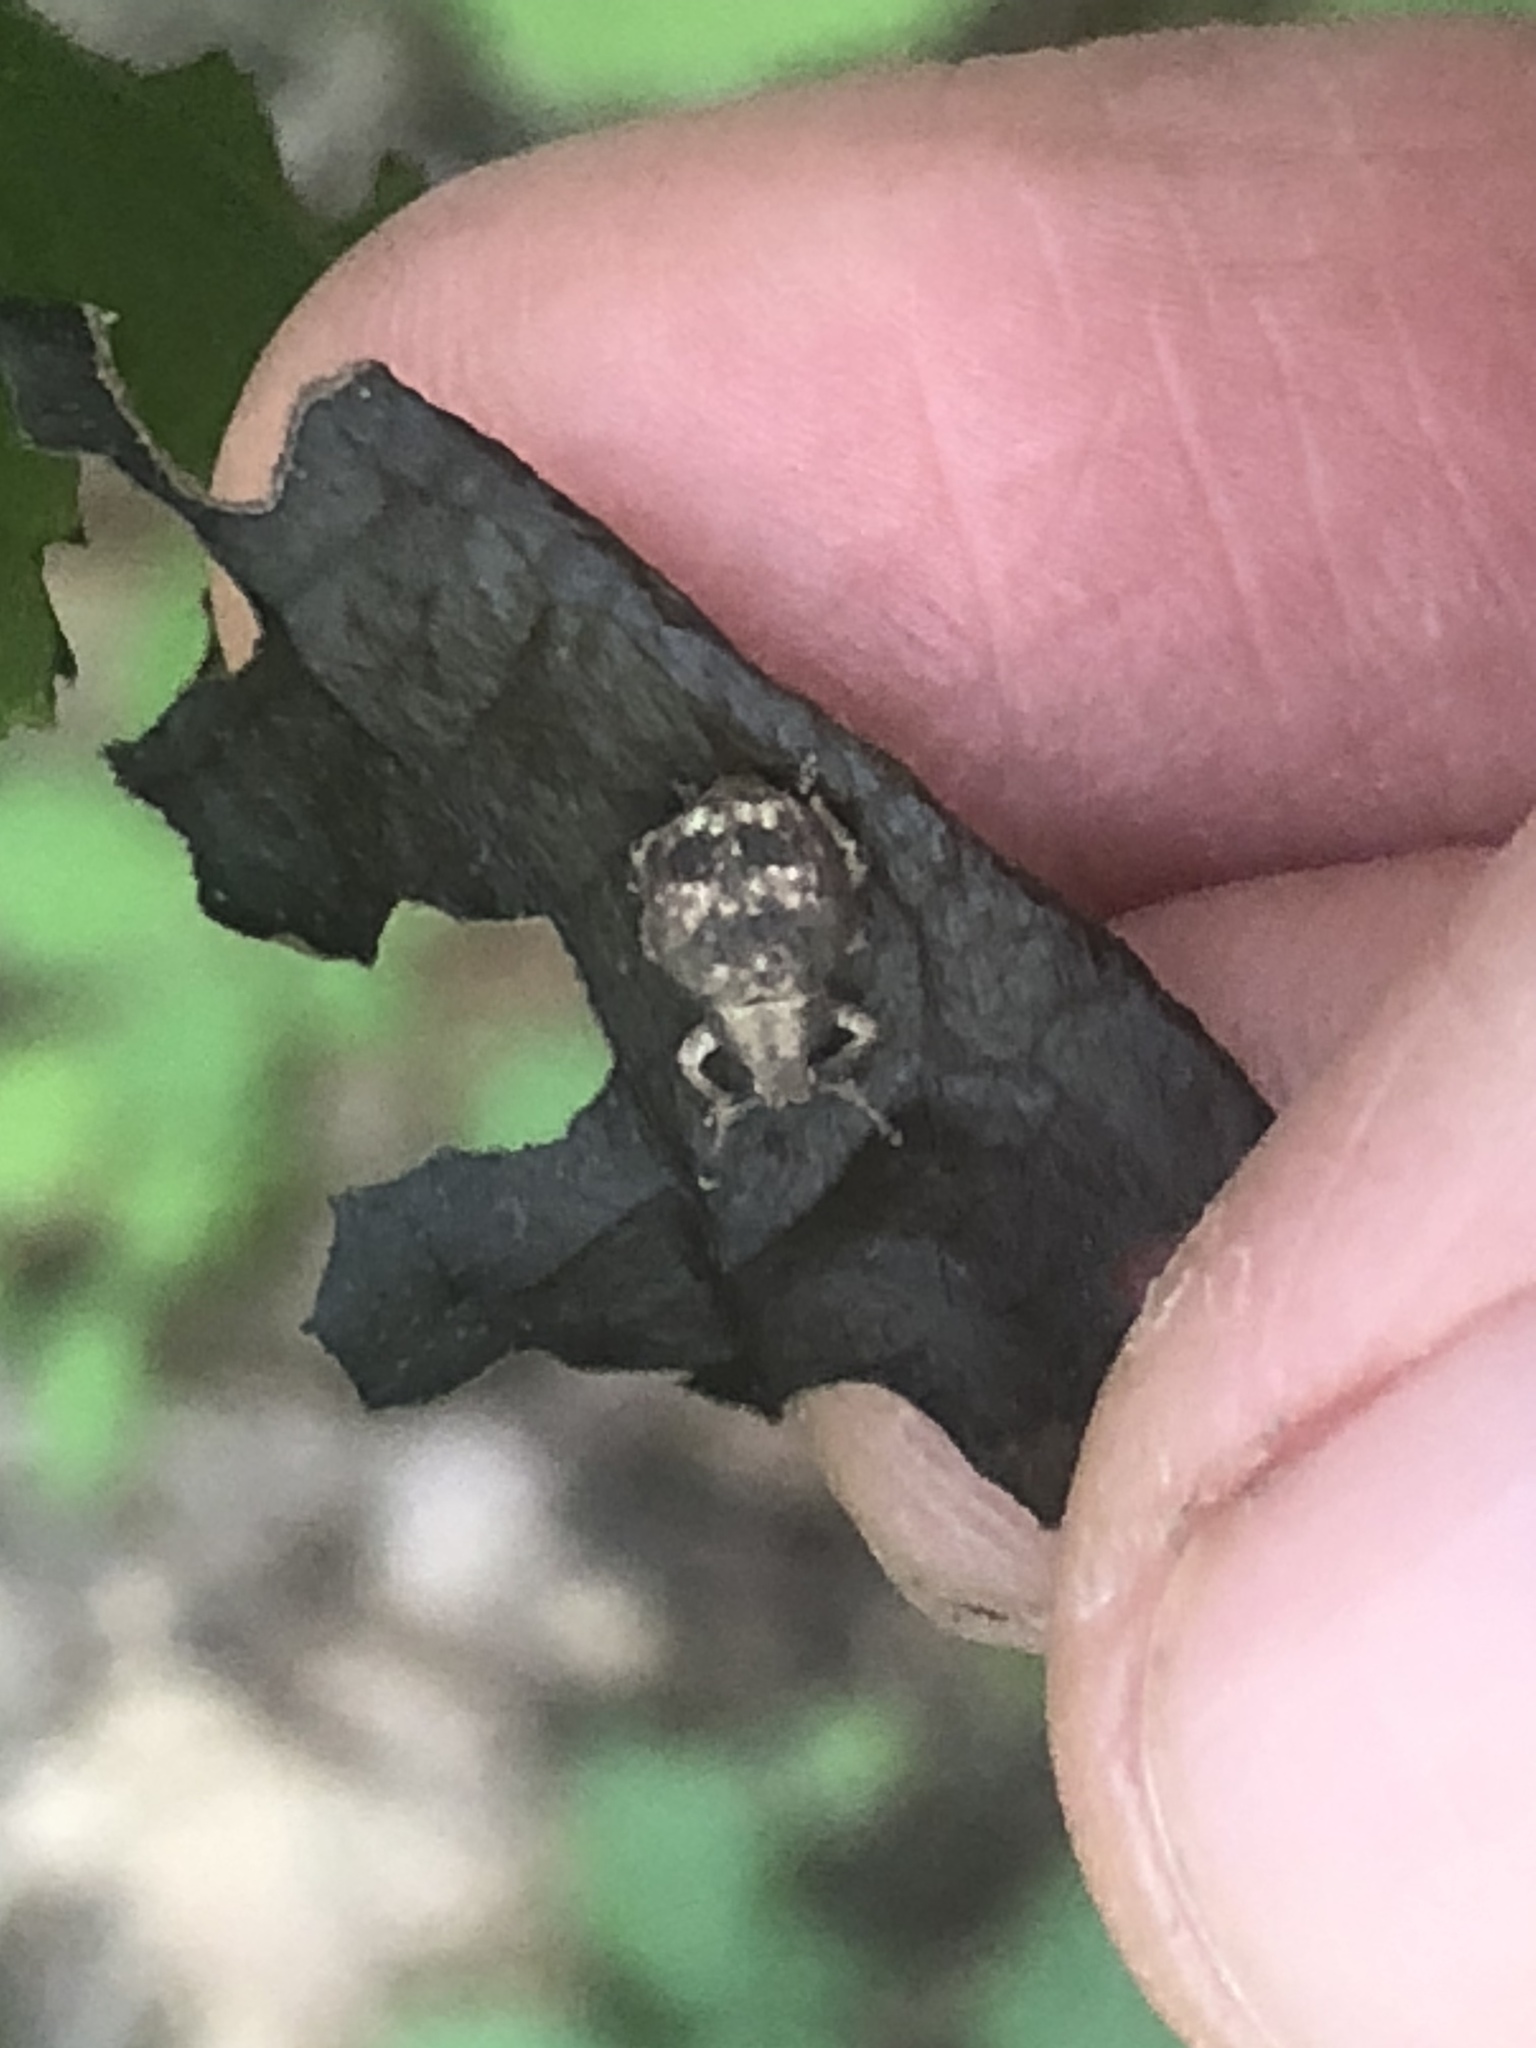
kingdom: Animalia
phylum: Arthropoda
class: Insecta
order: Coleoptera
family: Curculionidae
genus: Pseudocneorhinus
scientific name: Pseudocneorhinus bifasciatus
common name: Two-banded japanese weevil
